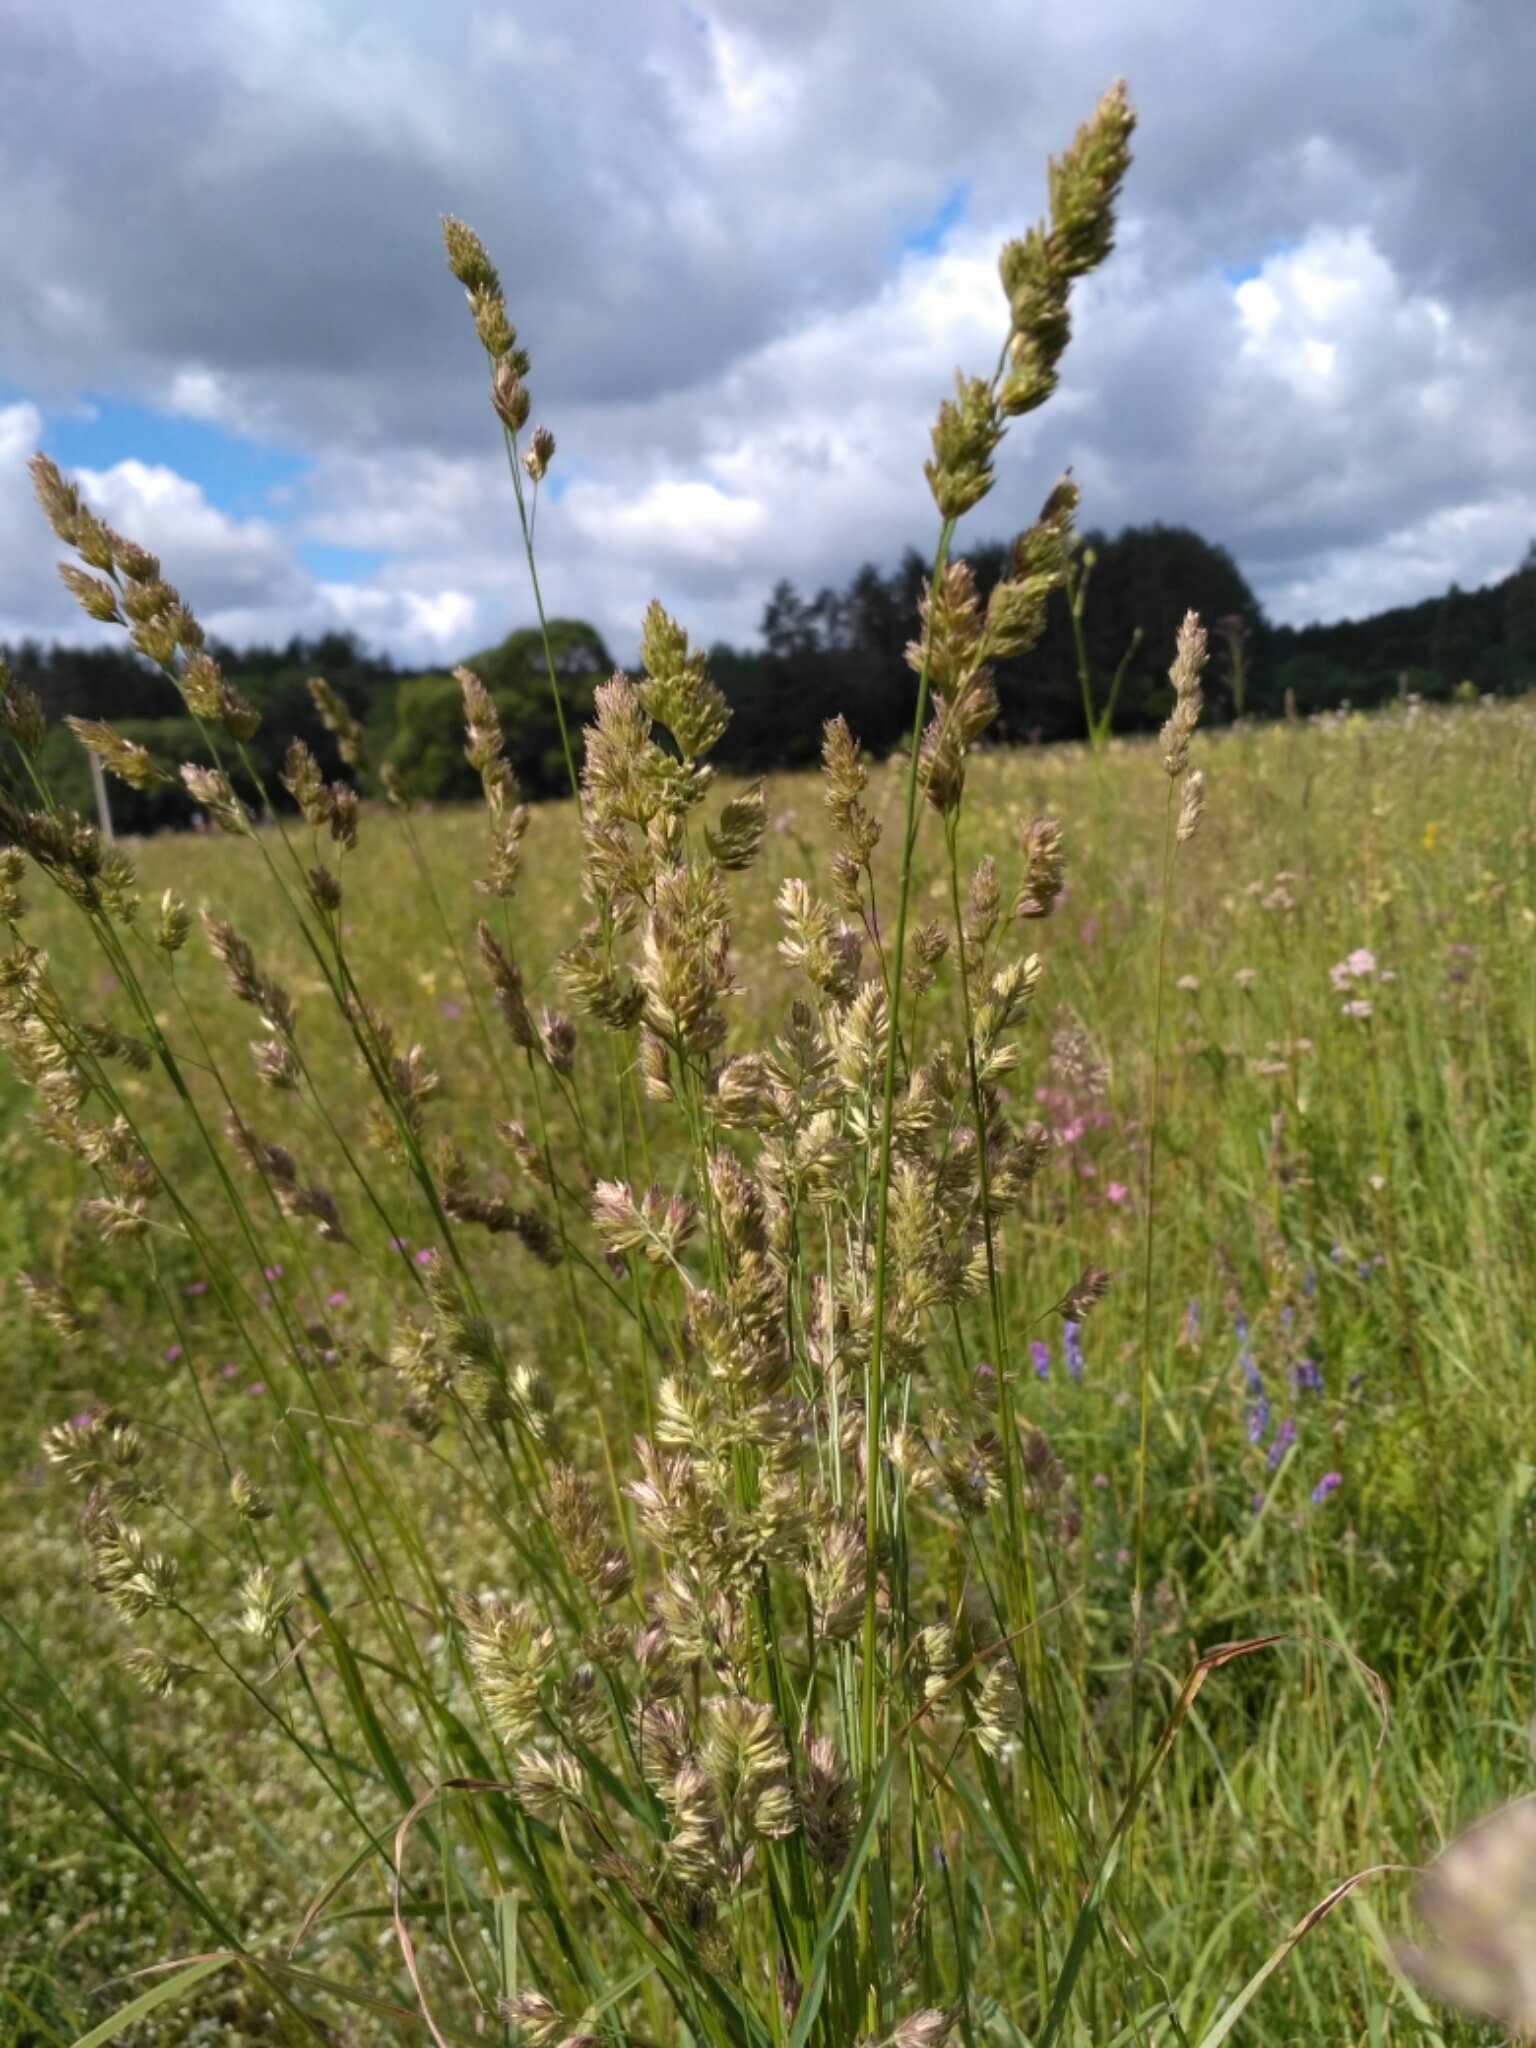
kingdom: Plantae
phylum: Tracheophyta
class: Liliopsida
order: Poales
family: Poaceae
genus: Dactylis
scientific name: Dactylis glomerata
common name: Orchardgrass
